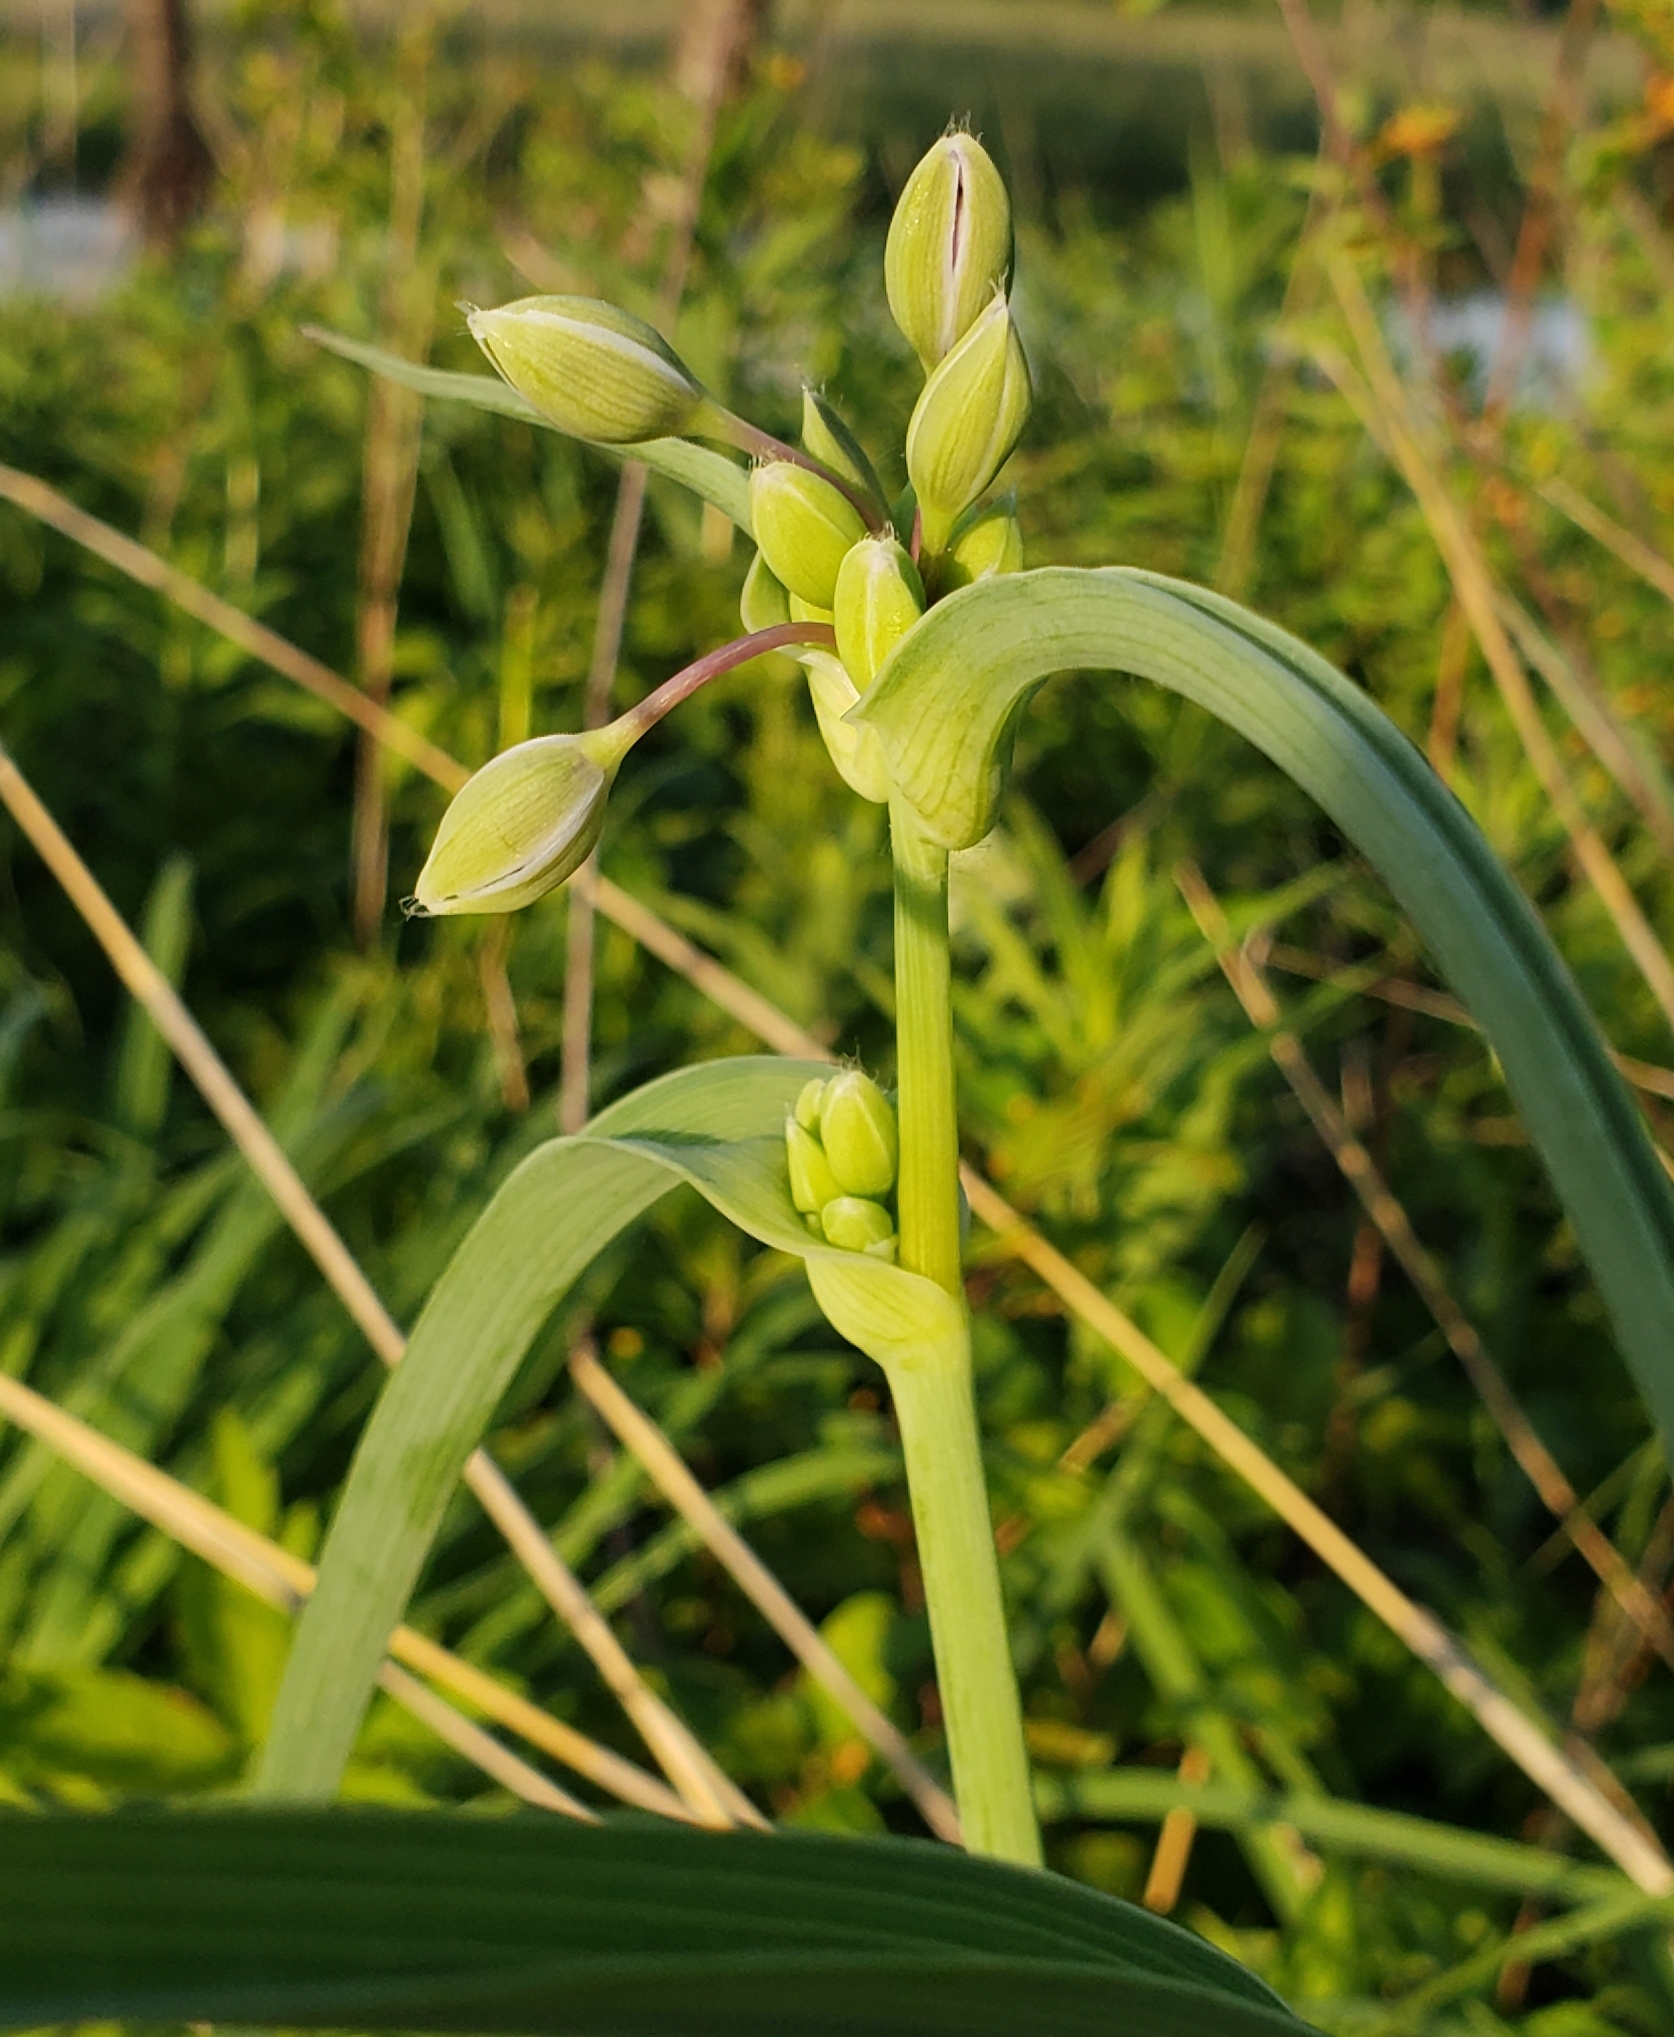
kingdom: Plantae
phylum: Tracheophyta
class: Liliopsida
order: Commelinales
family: Commelinaceae
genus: Tradescantia
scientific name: Tradescantia ohiensis
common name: Ohio spiderwort
